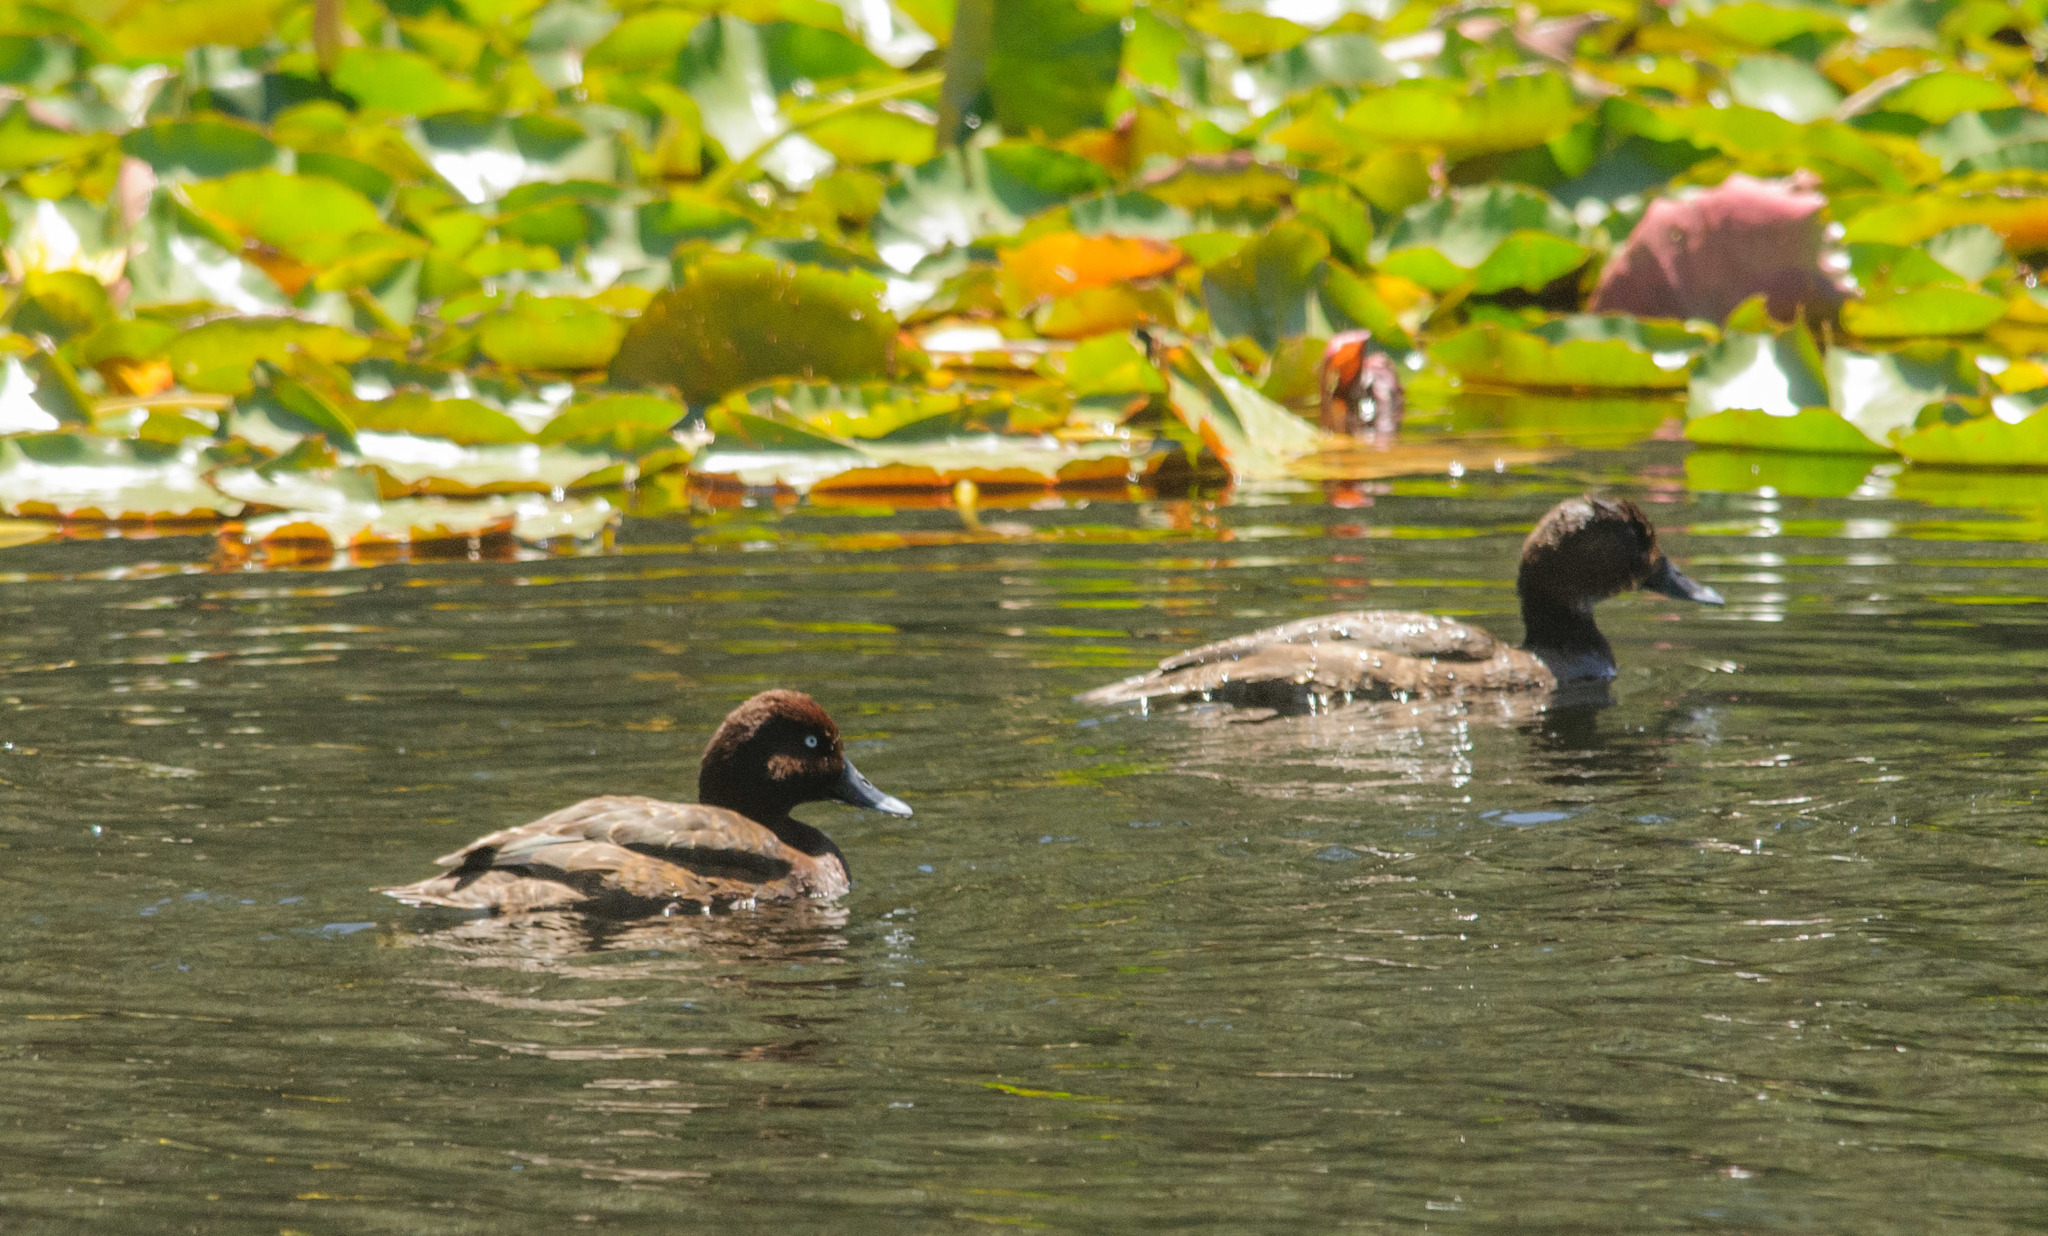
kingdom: Animalia
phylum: Chordata
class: Aves
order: Anseriformes
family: Anatidae
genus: Aythya
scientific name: Aythya australis
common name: Hardhead
